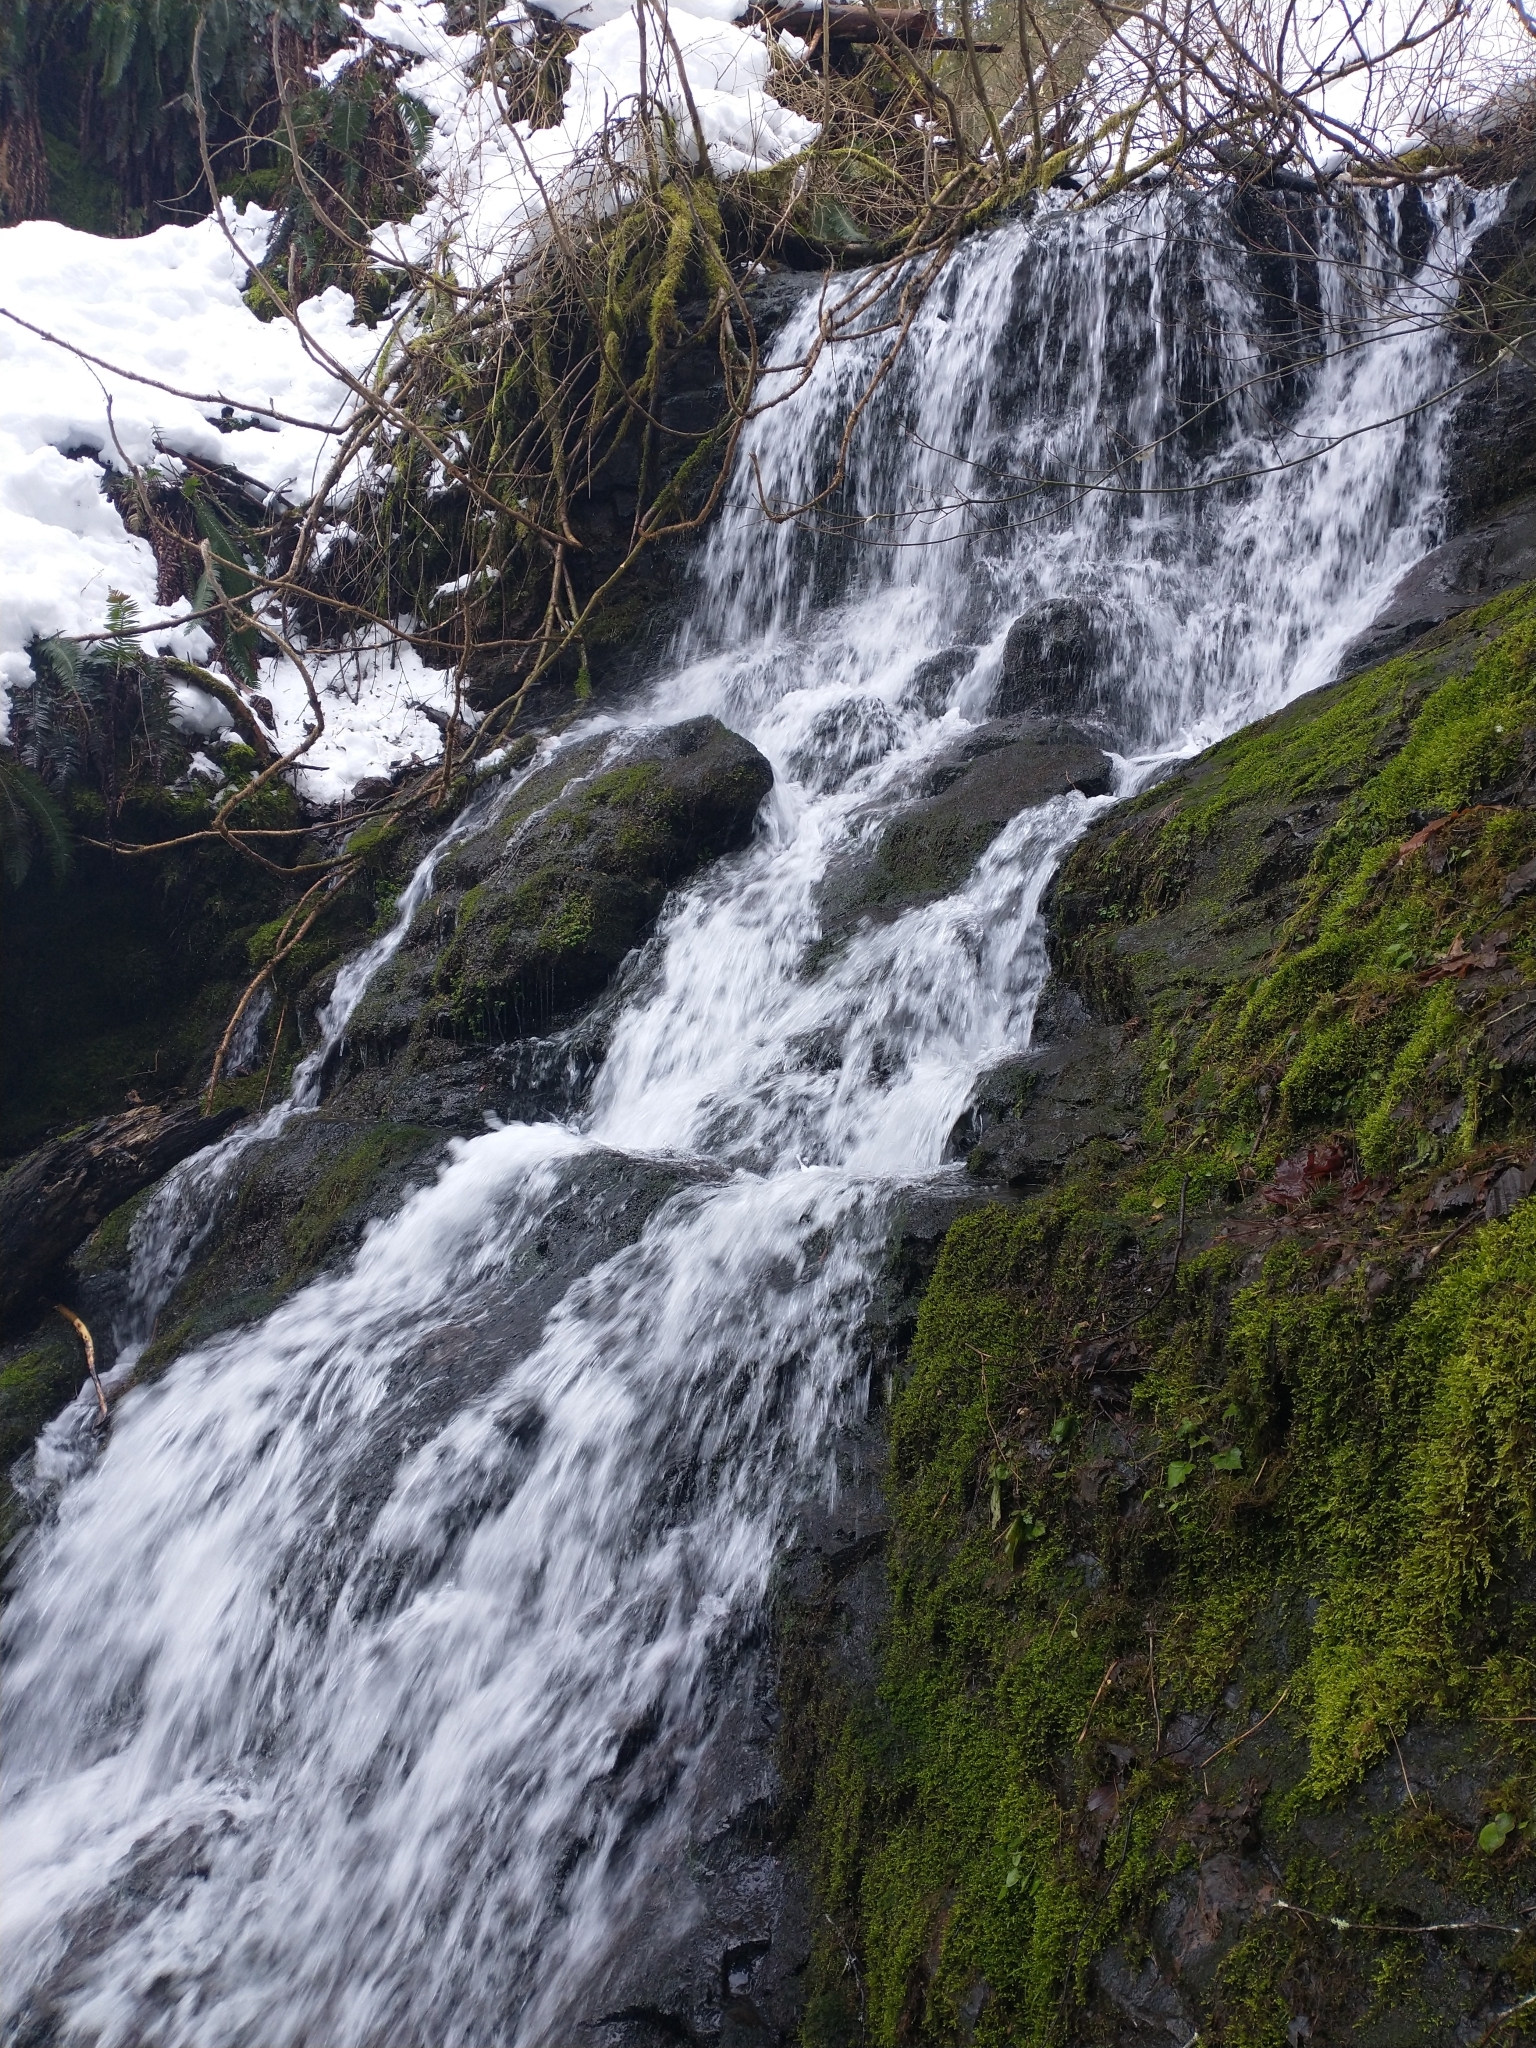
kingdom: Plantae
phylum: Tracheophyta
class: Magnoliopsida
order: Saxifragales
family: Saxifragaceae
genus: Chrysosplenium
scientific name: Chrysosplenium glechomifolium
